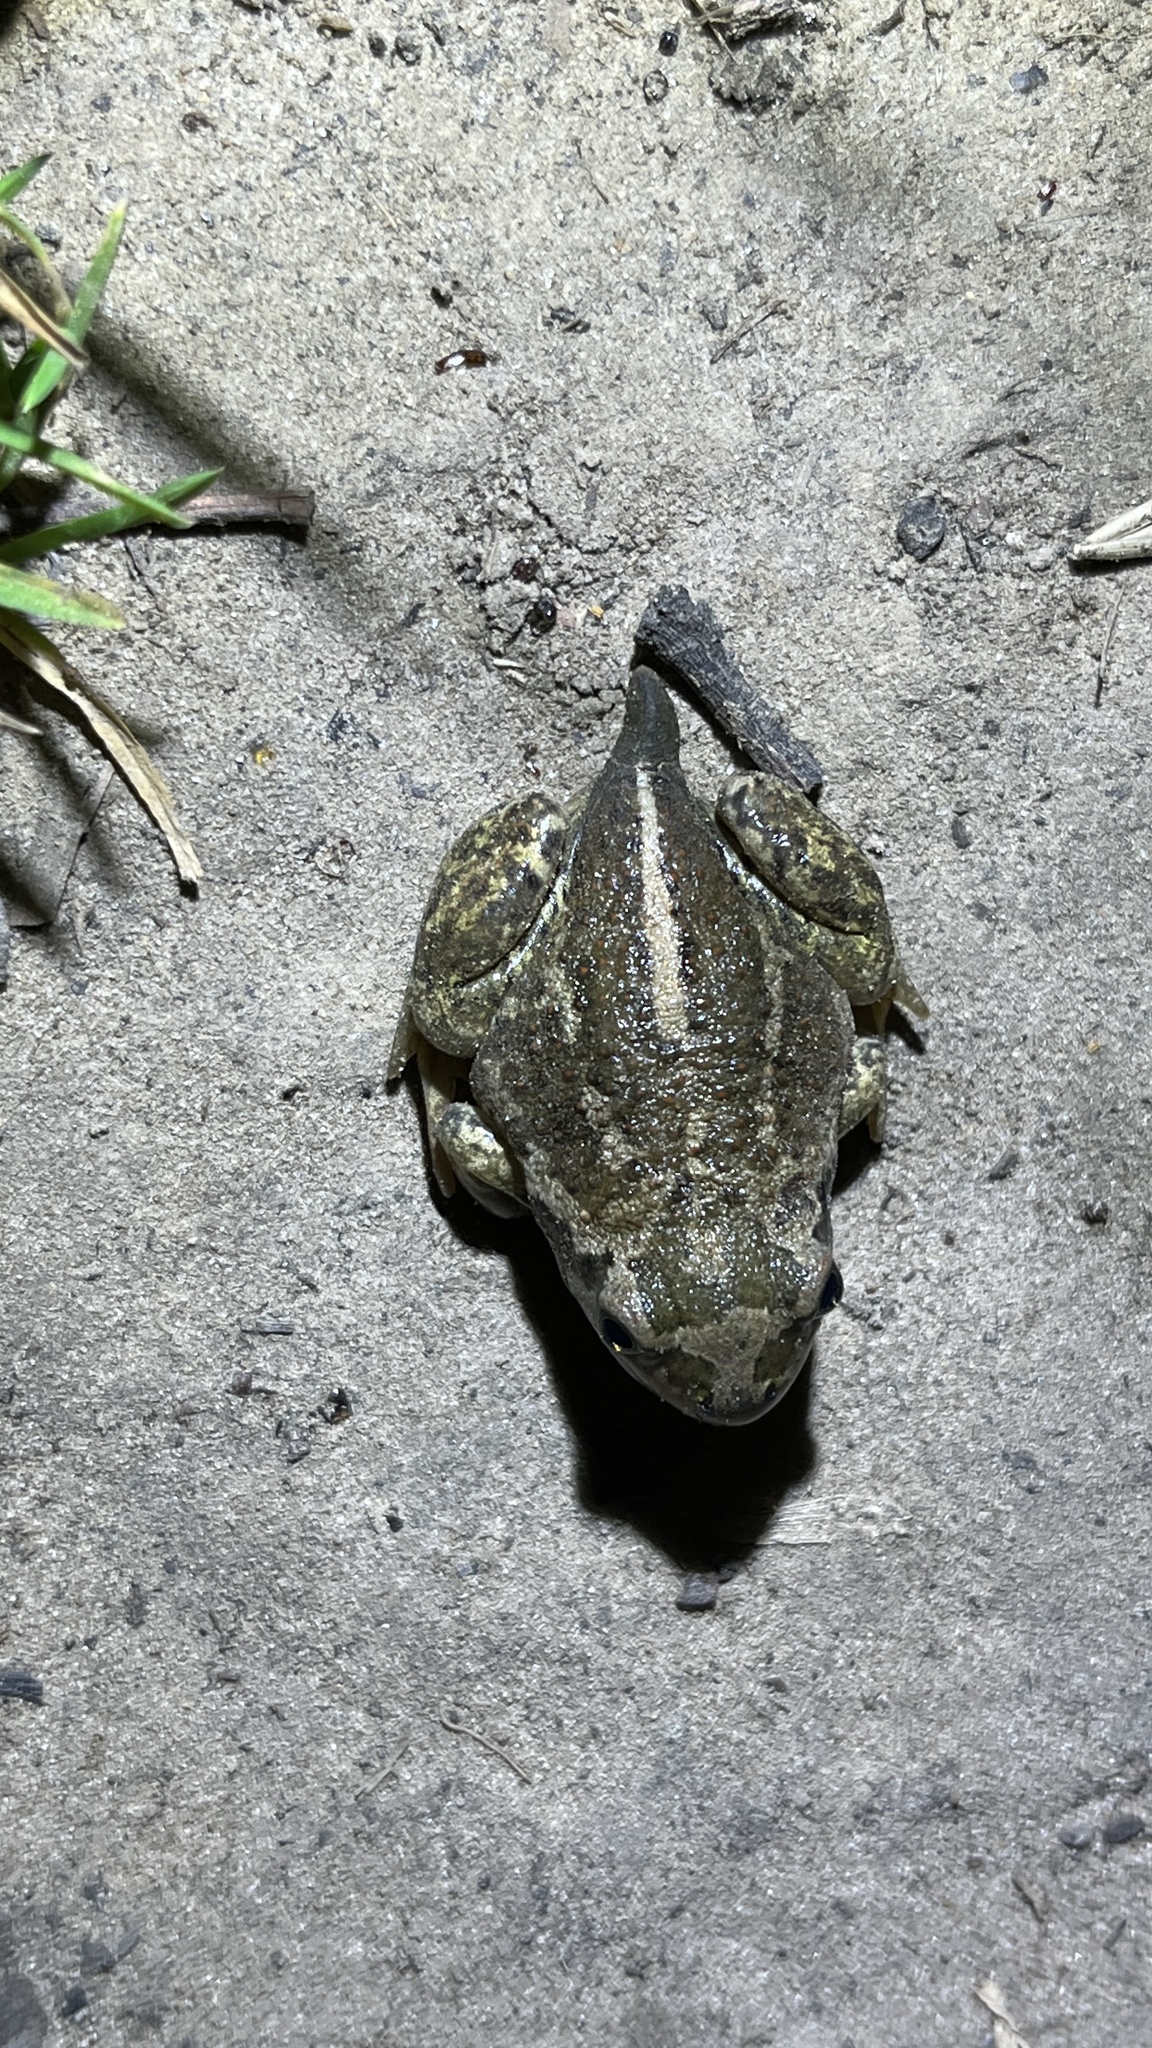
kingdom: Animalia
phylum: Chordata
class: Amphibia
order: Anura
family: Pelobatidae
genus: Pelobates
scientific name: Pelobates vespertinus
